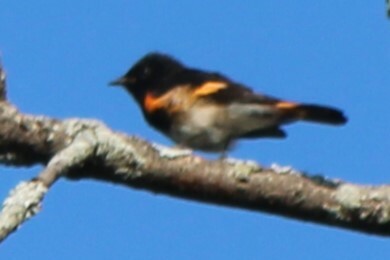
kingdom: Animalia
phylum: Chordata
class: Aves
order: Passeriformes
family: Parulidae
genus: Setophaga
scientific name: Setophaga ruticilla
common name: American redstart
